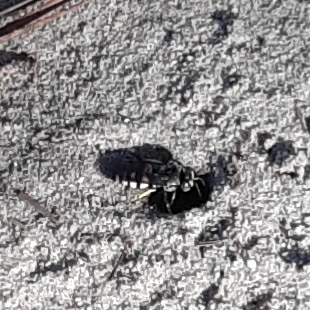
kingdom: Animalia
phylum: Arthropoda
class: Insecta
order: Hymenoptera
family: Crabronidae
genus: Bicyrtes
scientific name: Bicyrtes quadrifasciatus
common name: Four-banded stink bug hunter wasp
